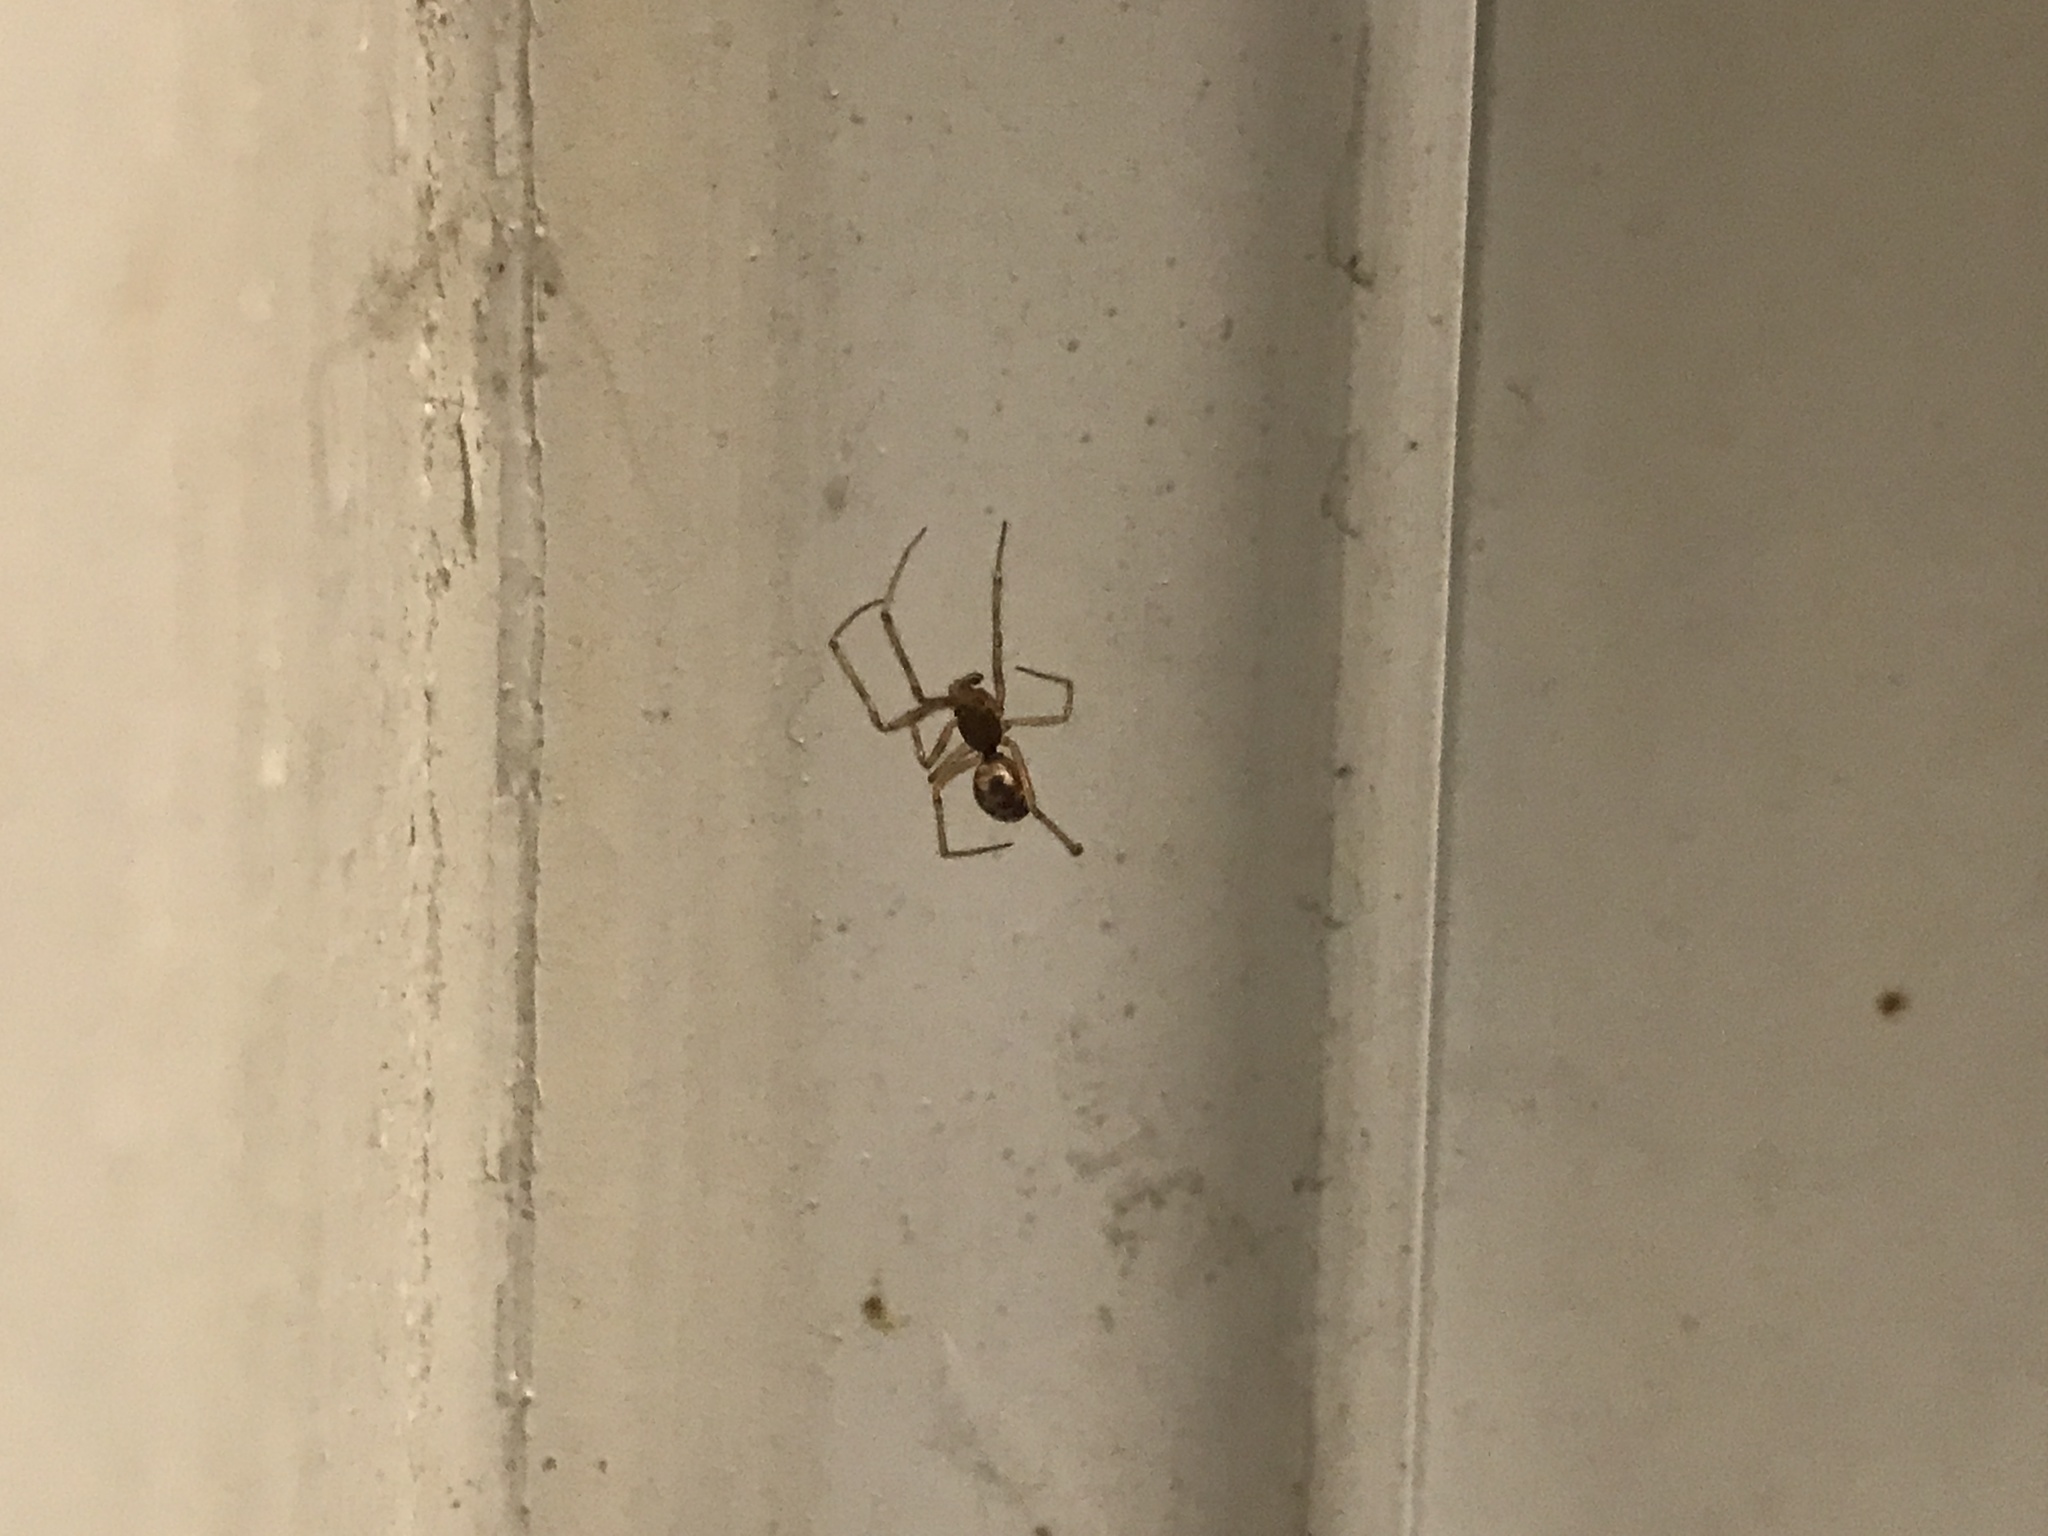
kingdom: Animalia
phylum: Arthropoda
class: Arachnida
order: Araneae
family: Theridiidae
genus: Steatoda
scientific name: Steatoda triangulosa
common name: Triangulate bud spider
